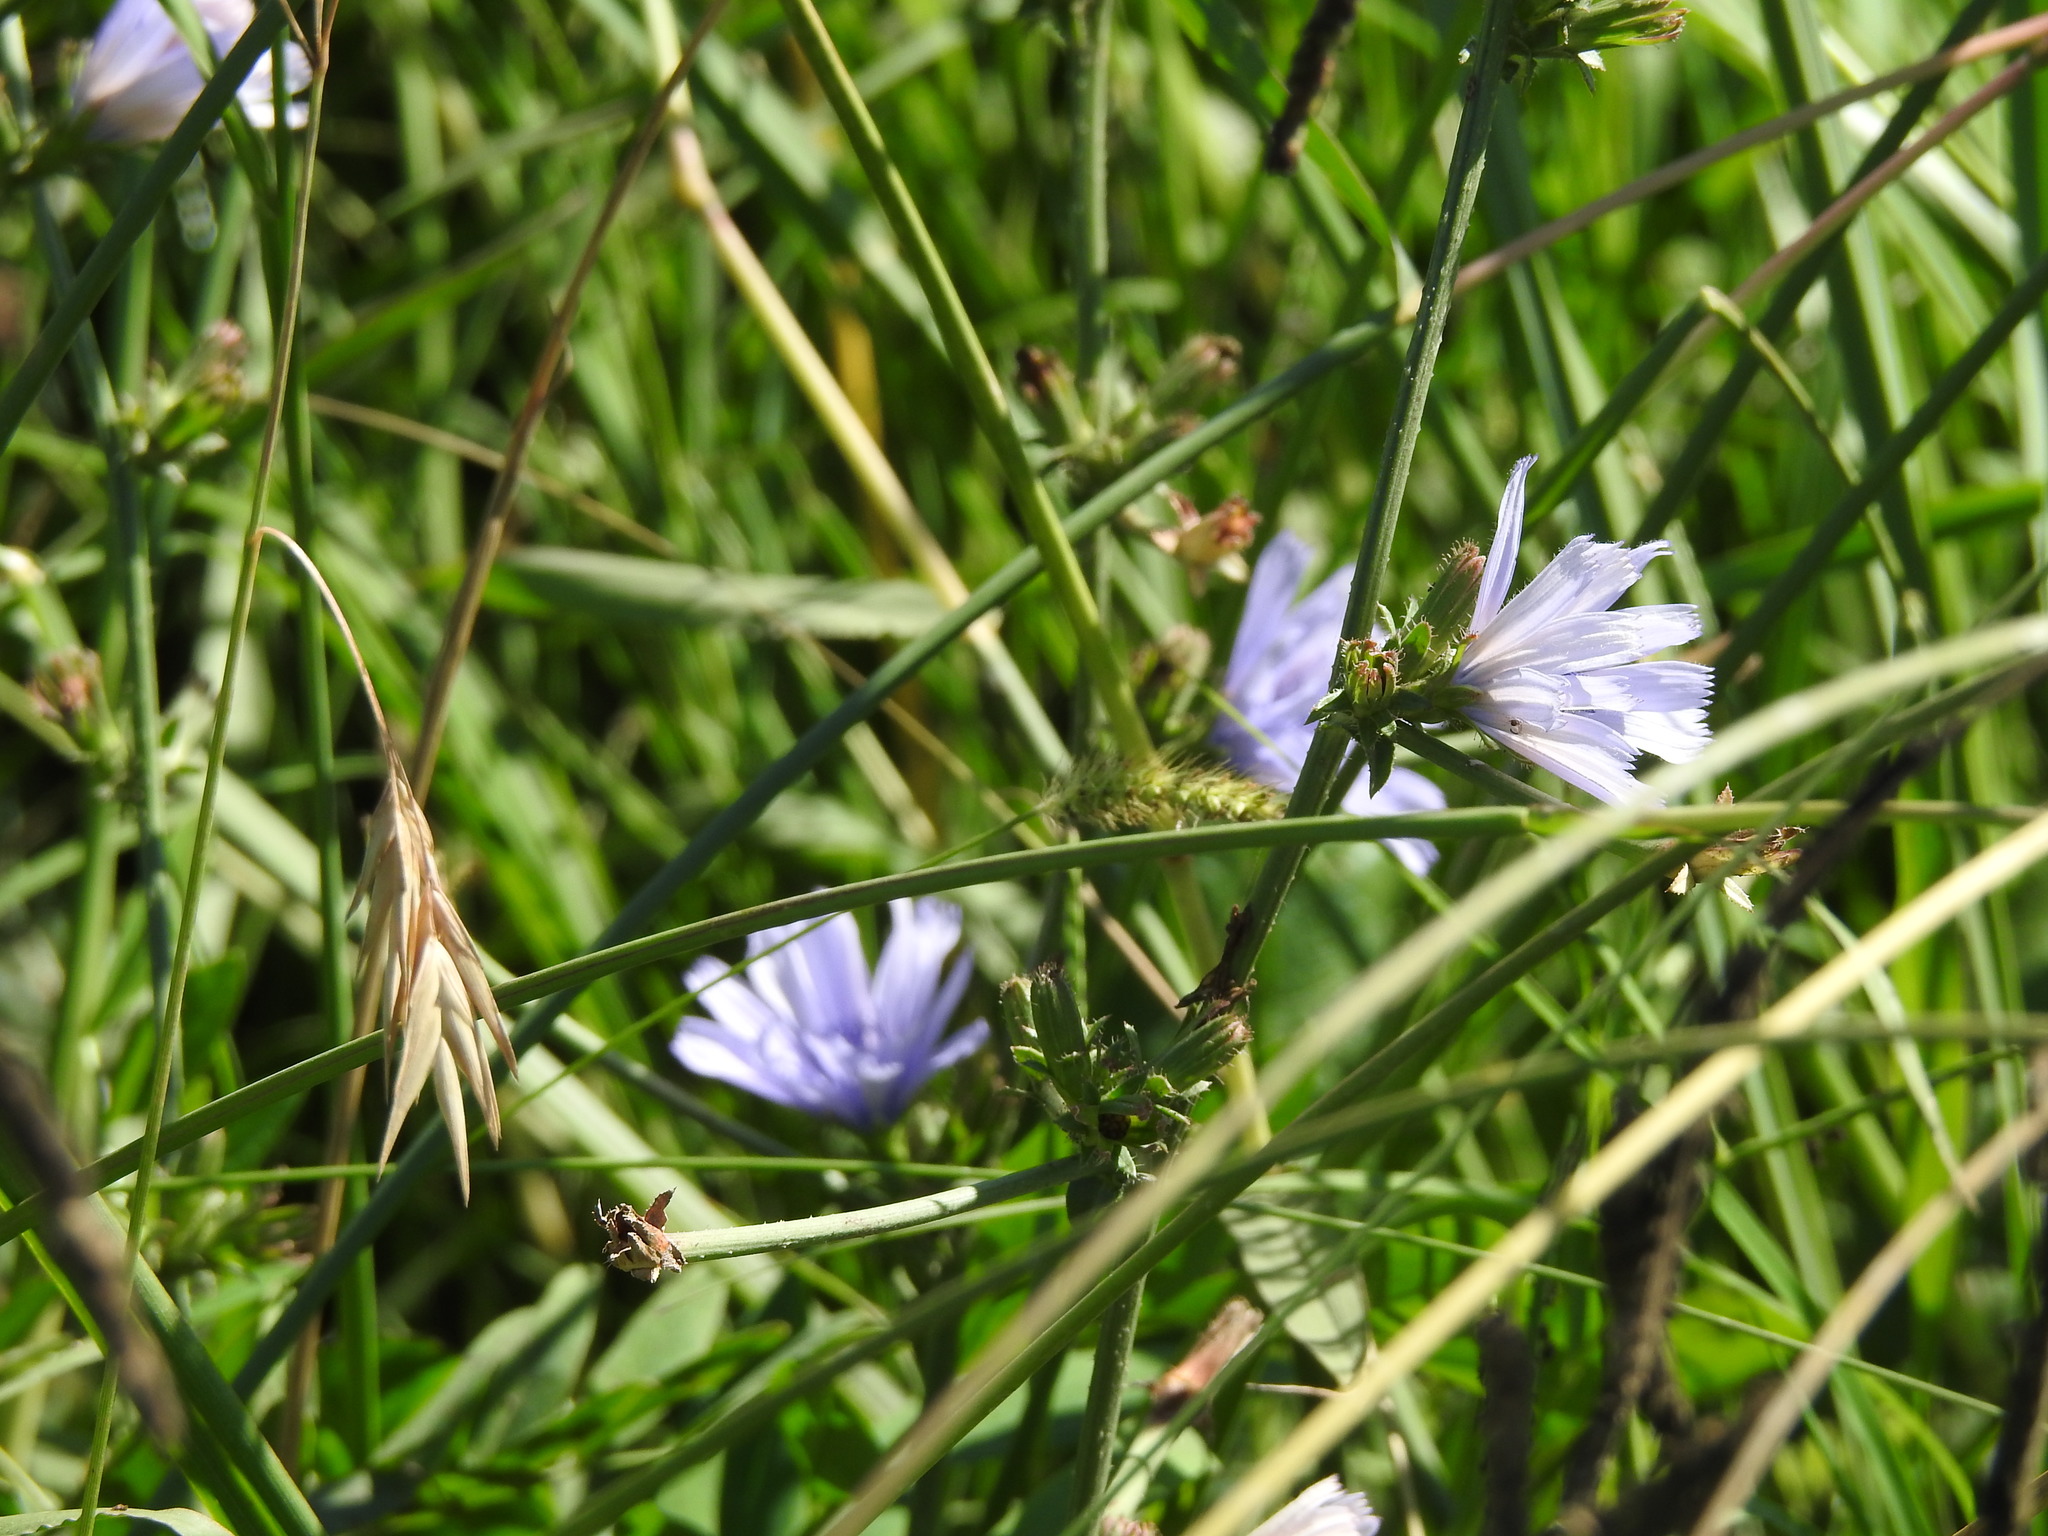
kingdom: Plantae
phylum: Tracheophyta
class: Magnoliopsida
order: Asterales
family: Asteraceae
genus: Cichorium
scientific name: Cichorium intybus
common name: Chicory
